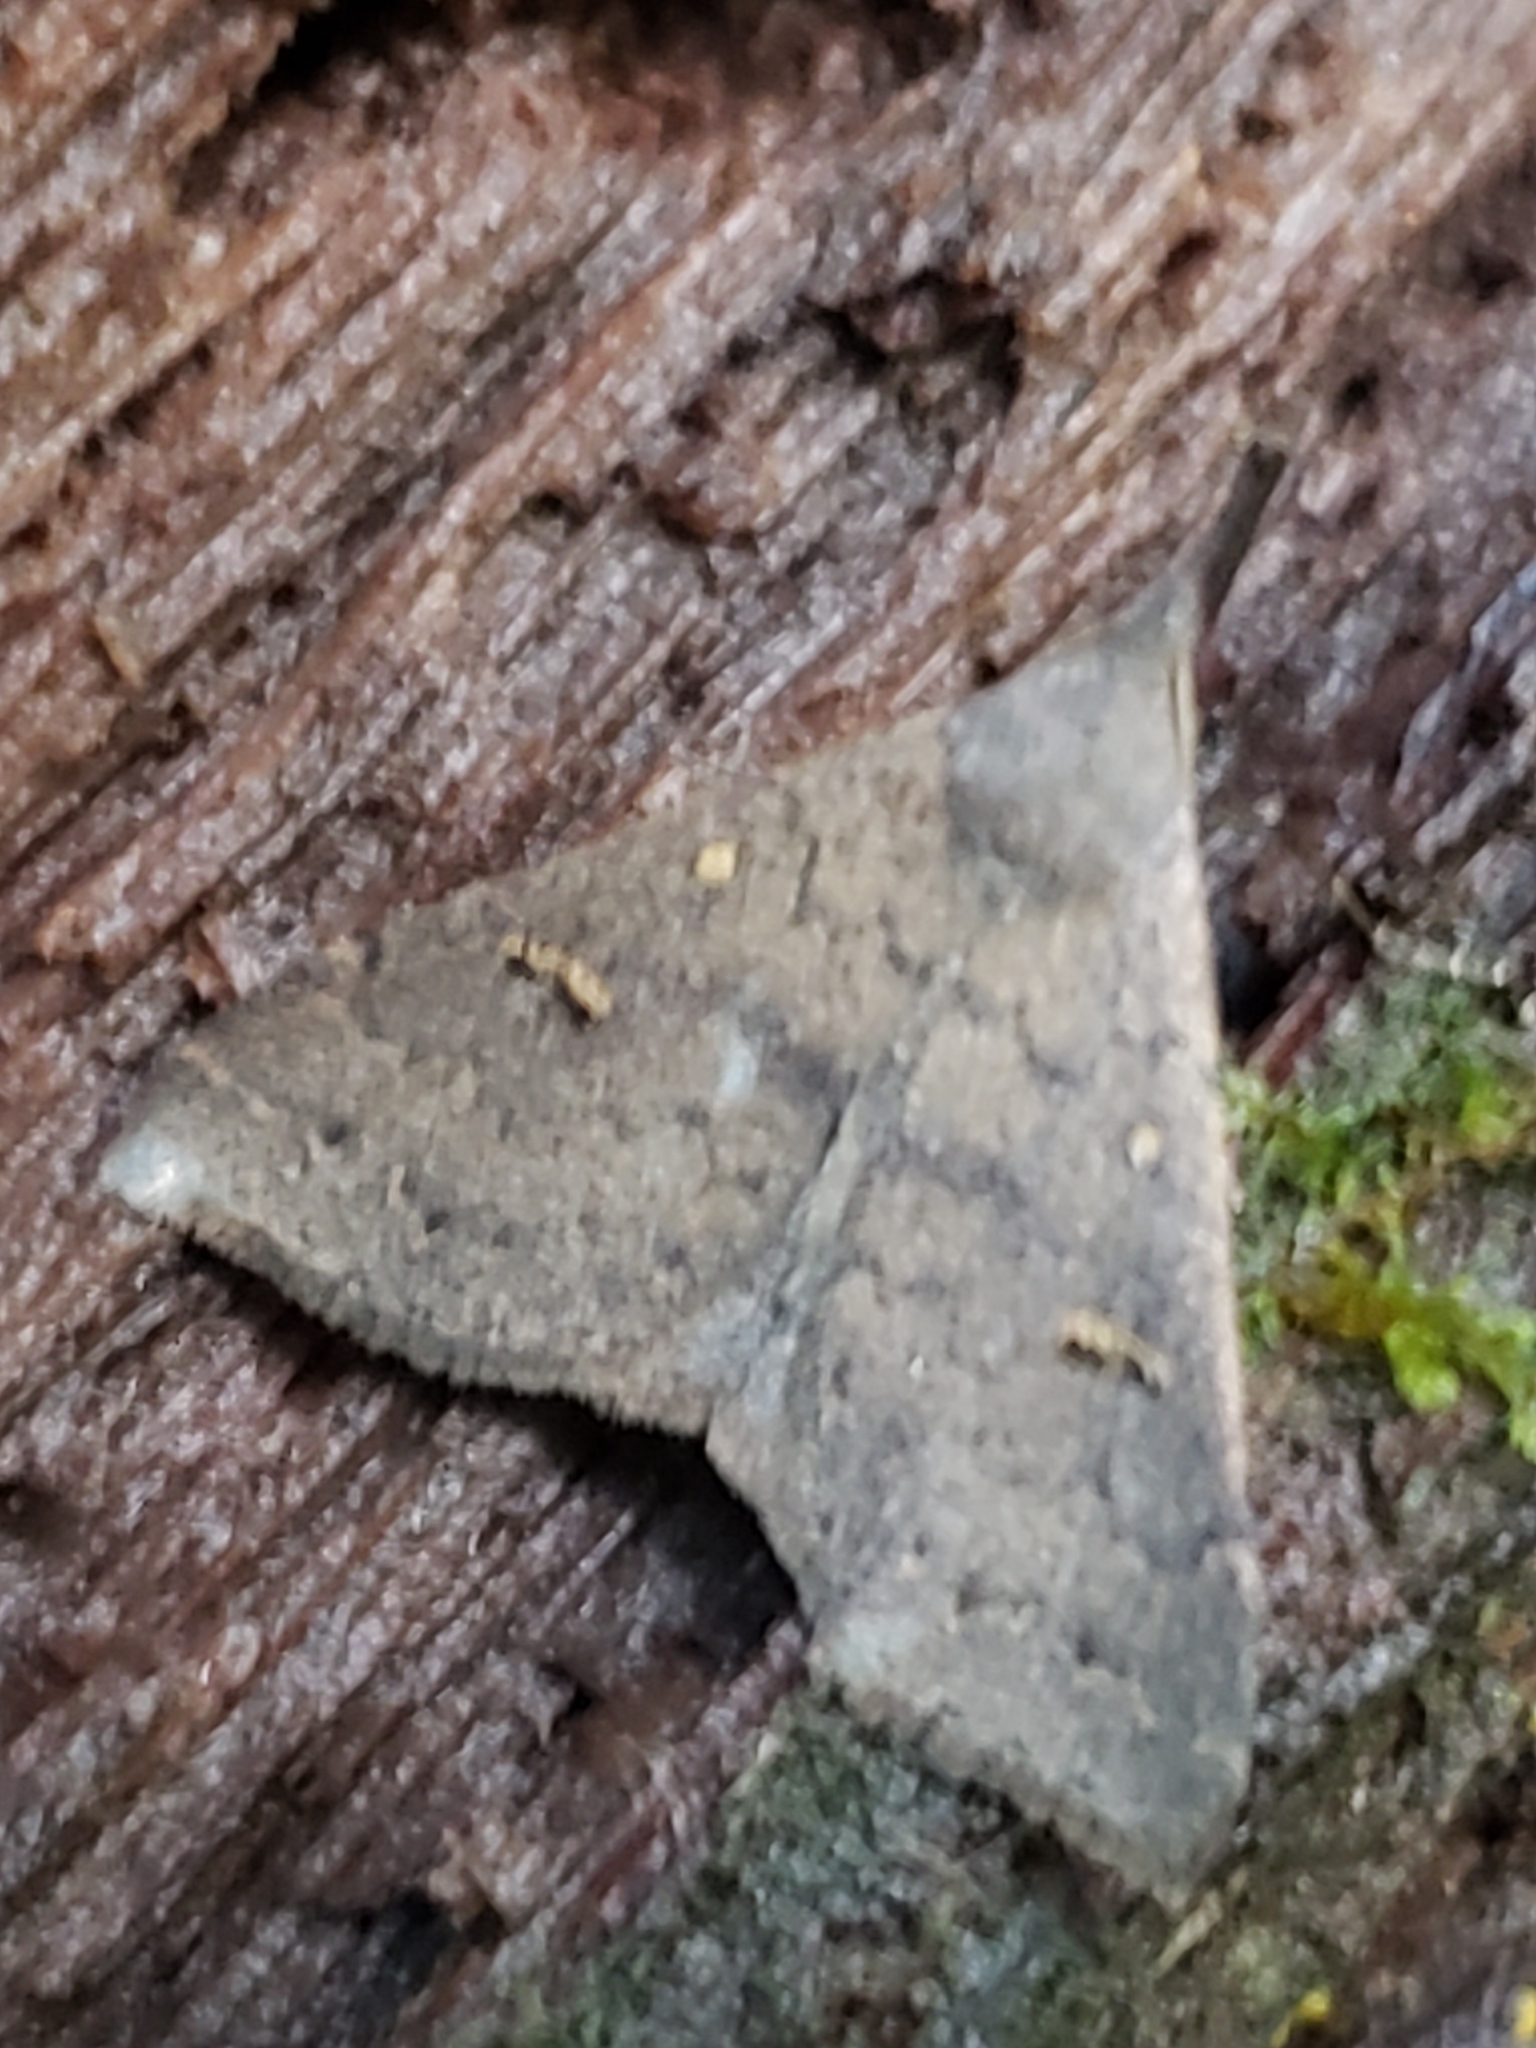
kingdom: Animalia
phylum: Arthropoda
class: Insecta
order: Lepidoptera
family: Erebidae
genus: Renia
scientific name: Renia adspergillus
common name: Speckled renia moth
